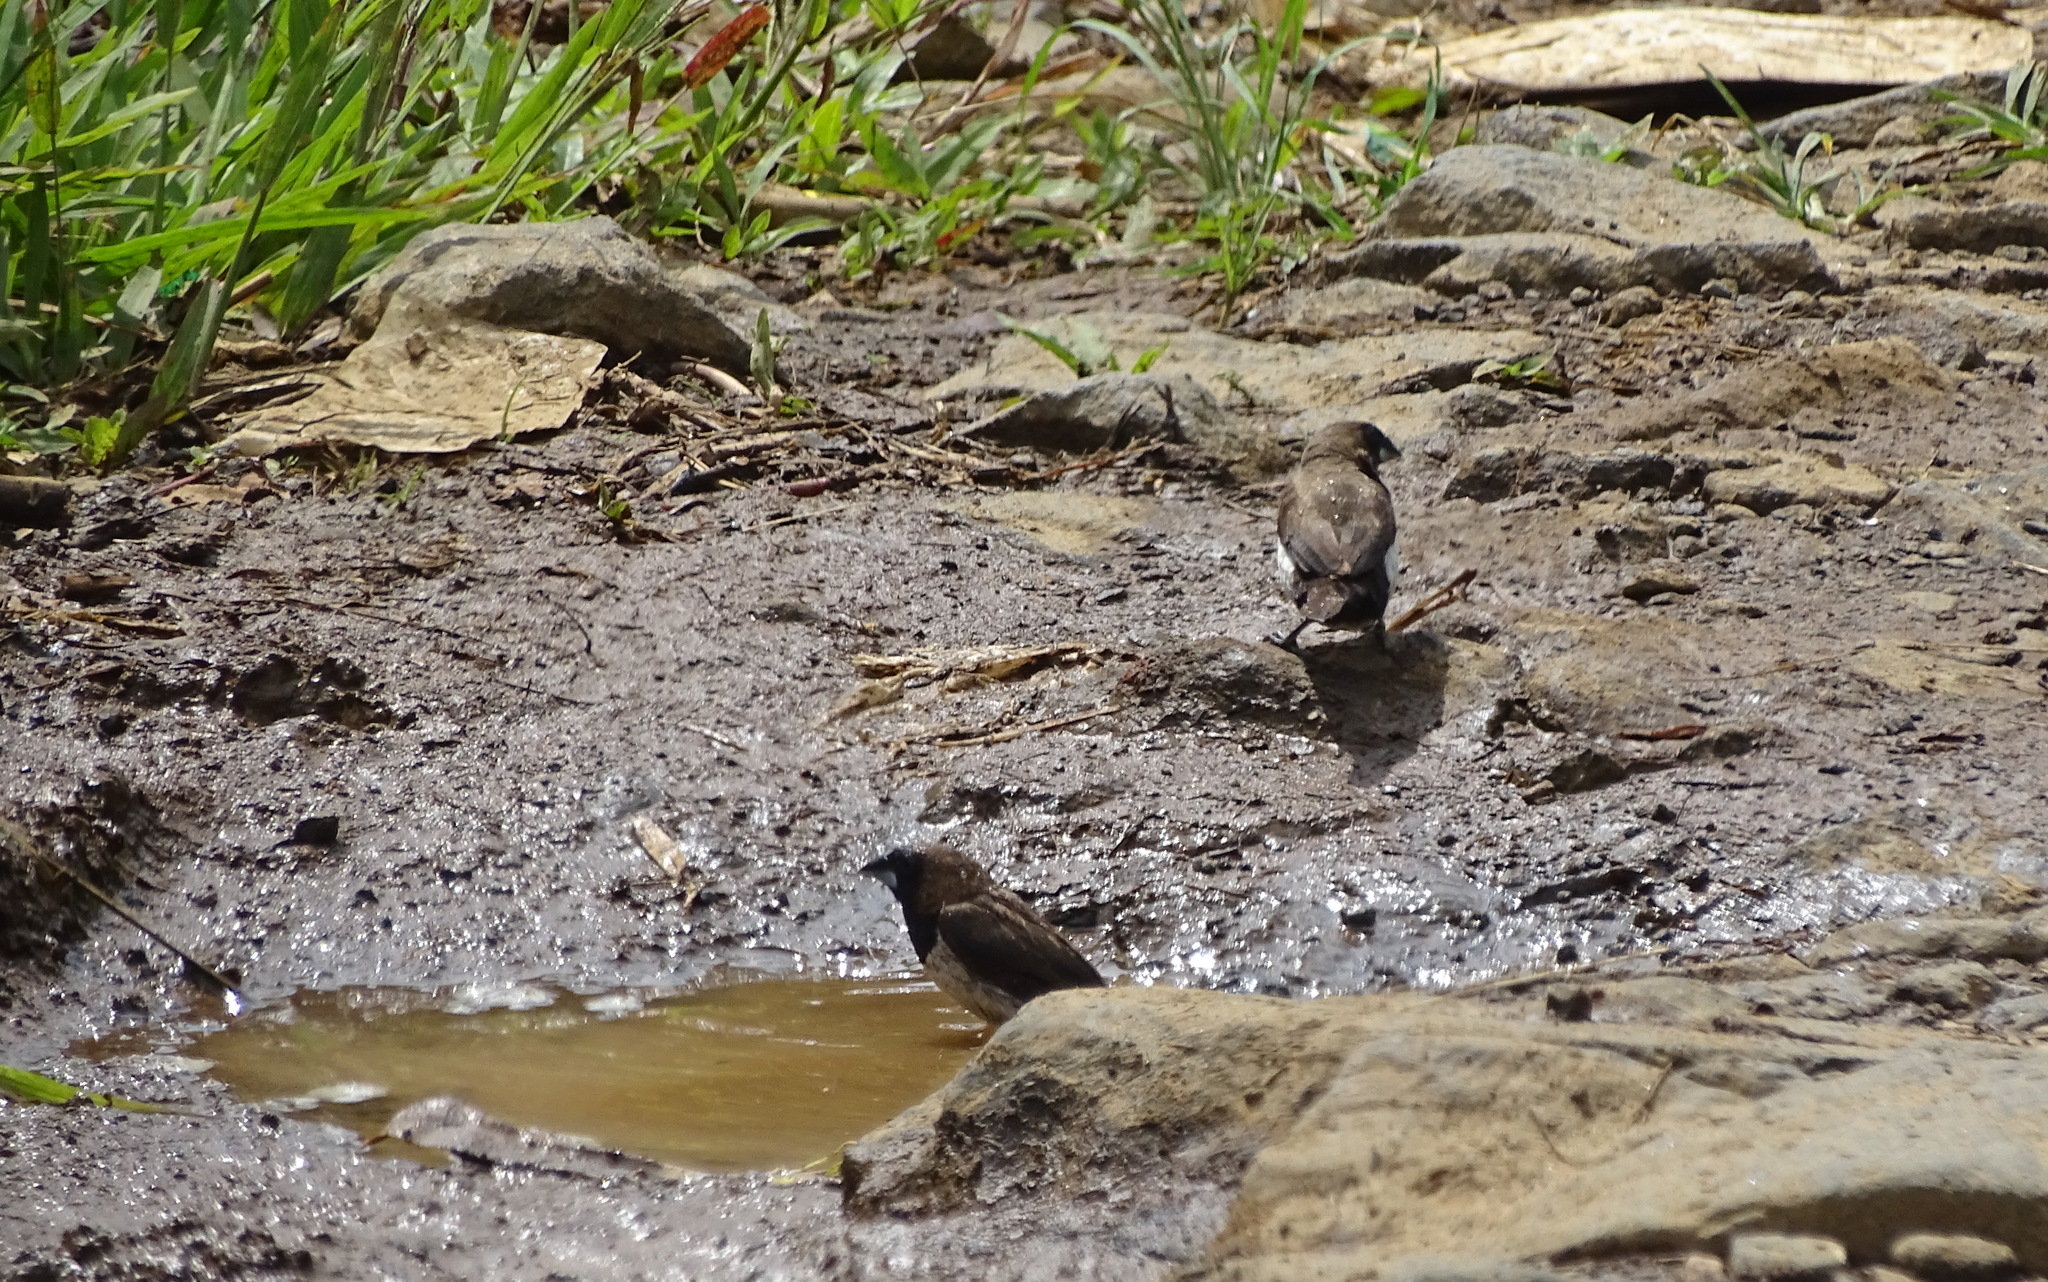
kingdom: Animalia
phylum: Chordata
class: Aves
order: Passeriformes
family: Estrildidae
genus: Lonchura
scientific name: Lonchura leucogastroides
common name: Javan munia
